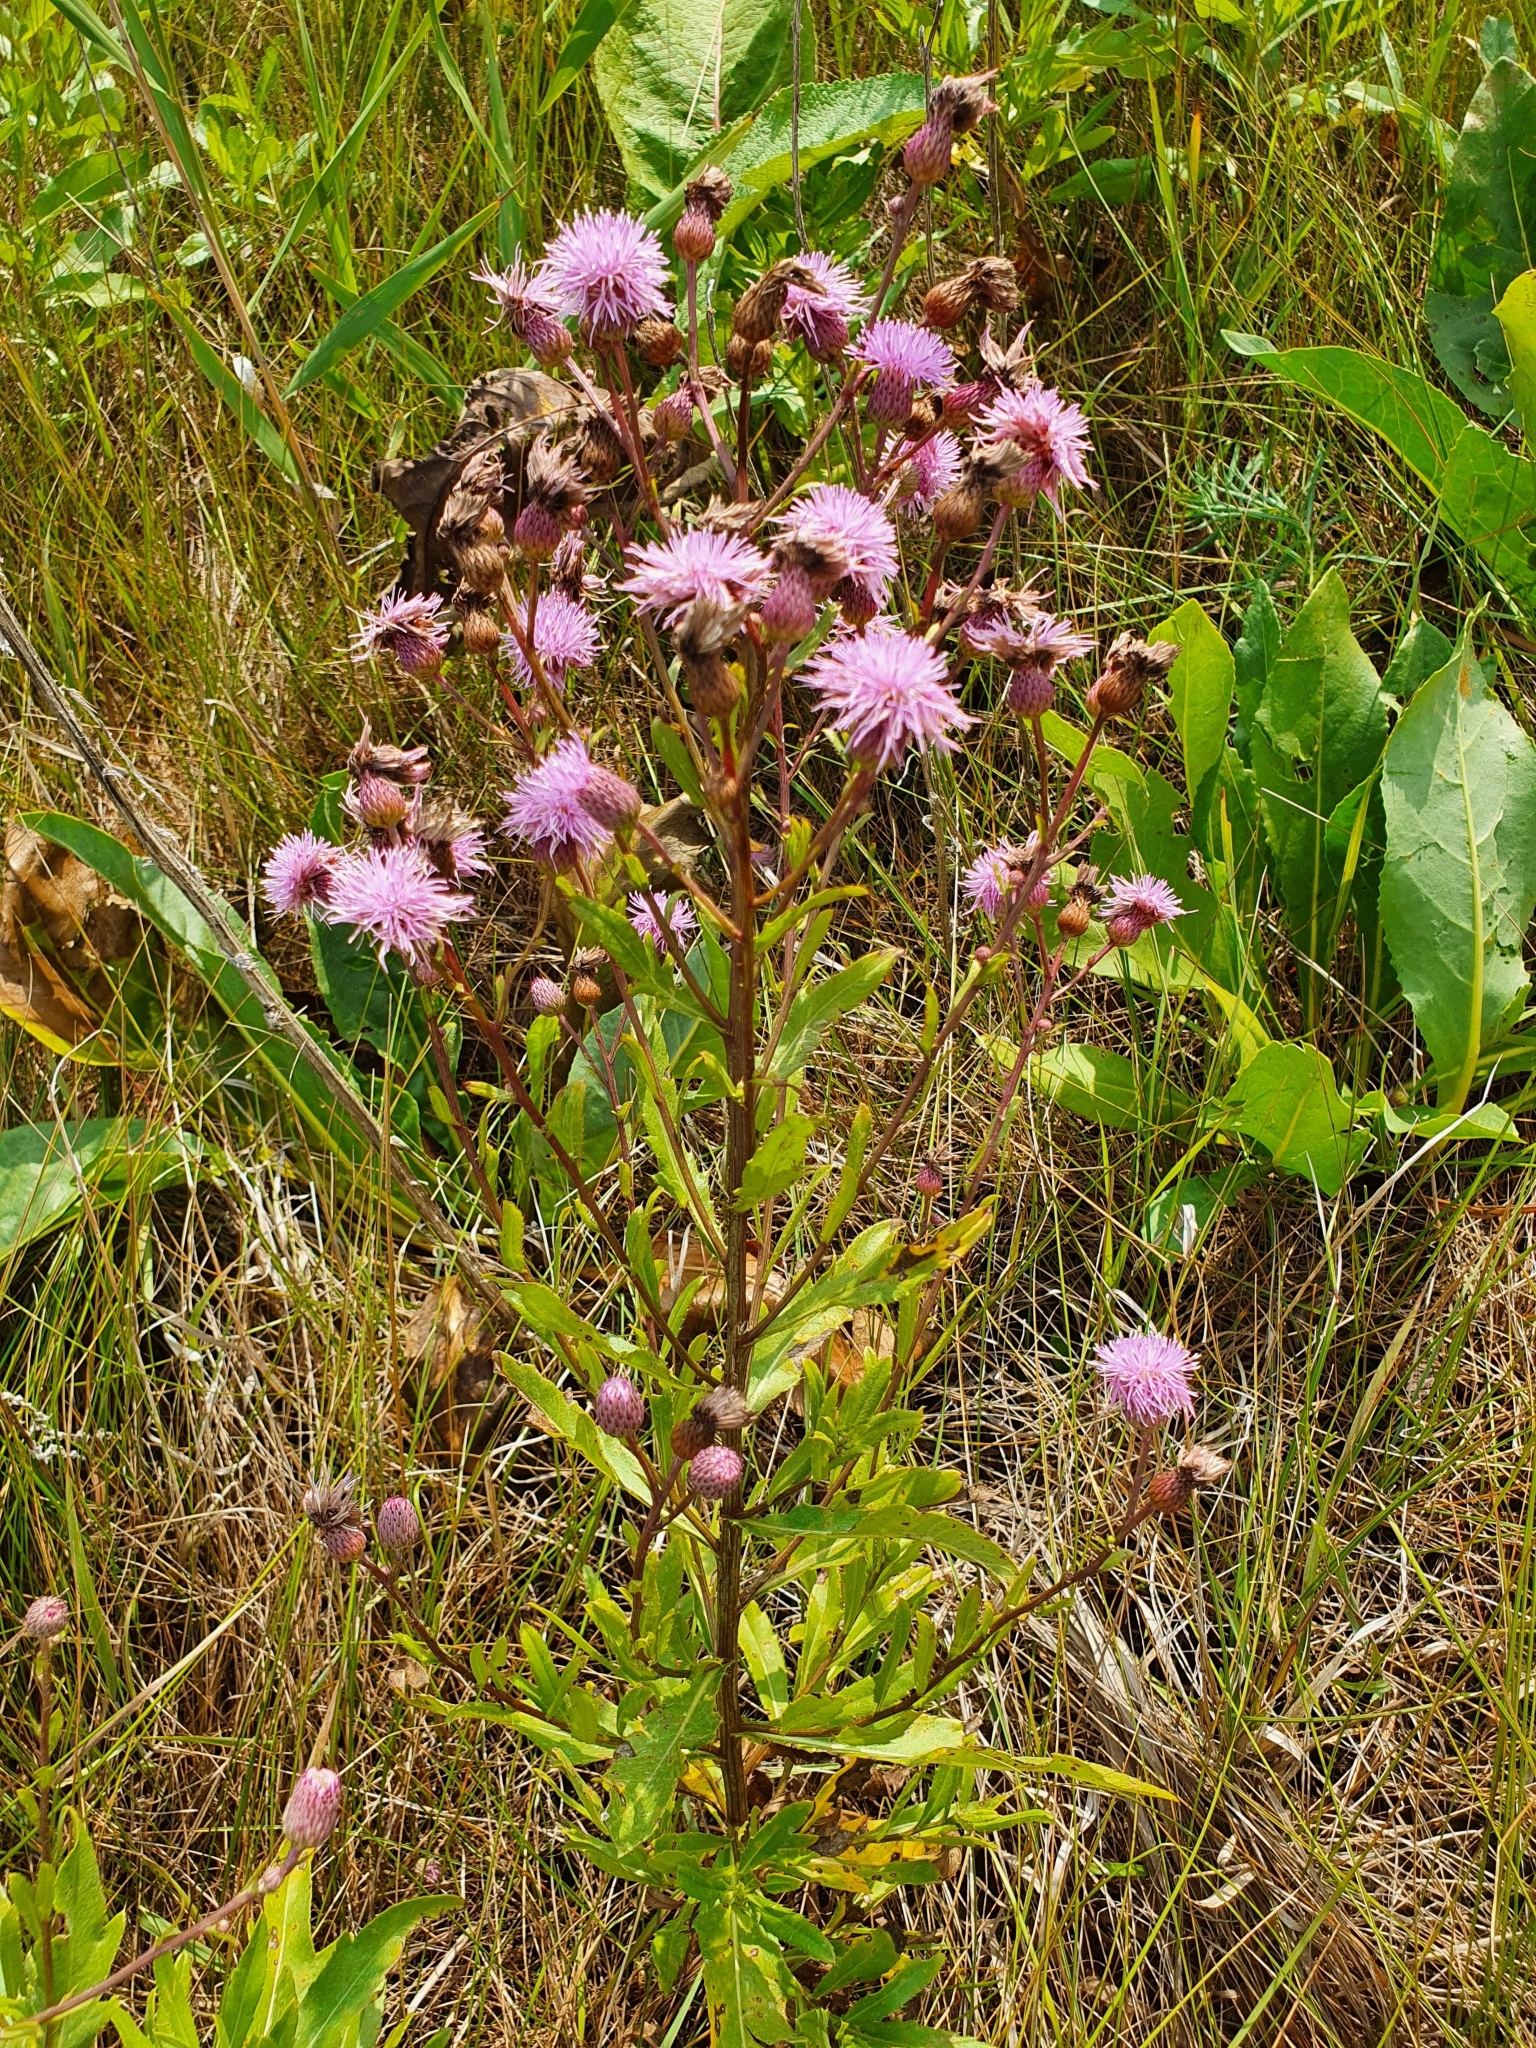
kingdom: Plantae
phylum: Tracheophyta
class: Magnoliopsida
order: Asterales
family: Asteraceae
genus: Cirsium
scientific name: Cirsium arvense
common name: Creeping thistle
